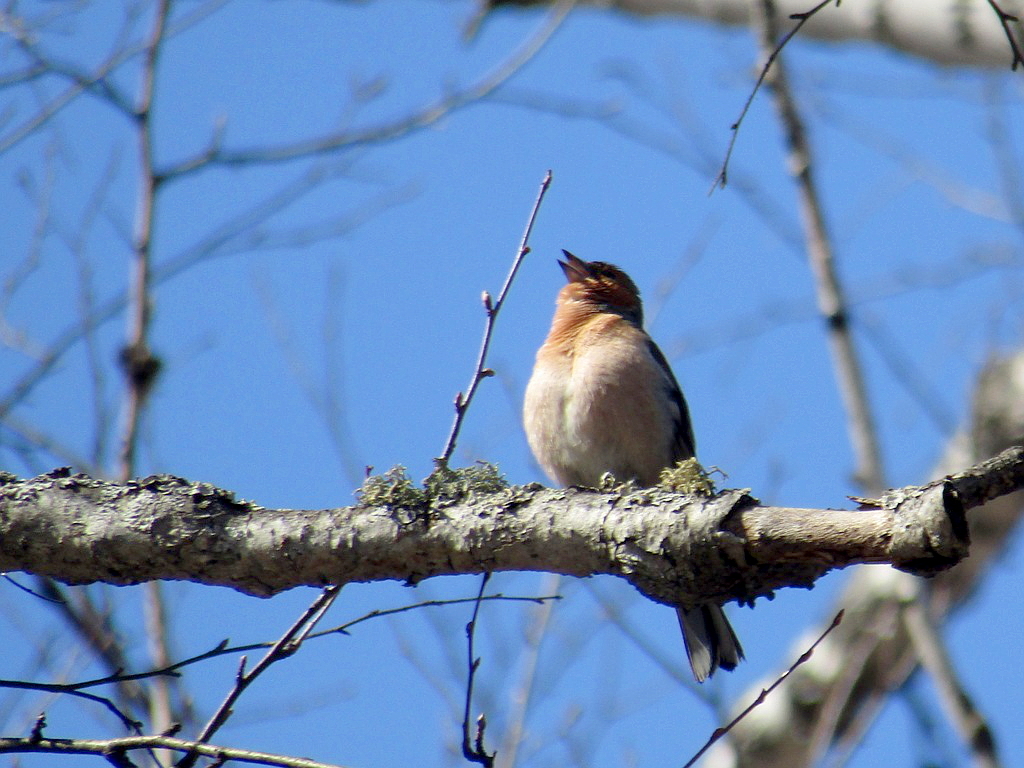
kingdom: Animalia
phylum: Chordata
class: Aves
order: Passeriformes
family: Fringillidae
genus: Fringilla
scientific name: Fringilla coelebs
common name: Common chaffinch
